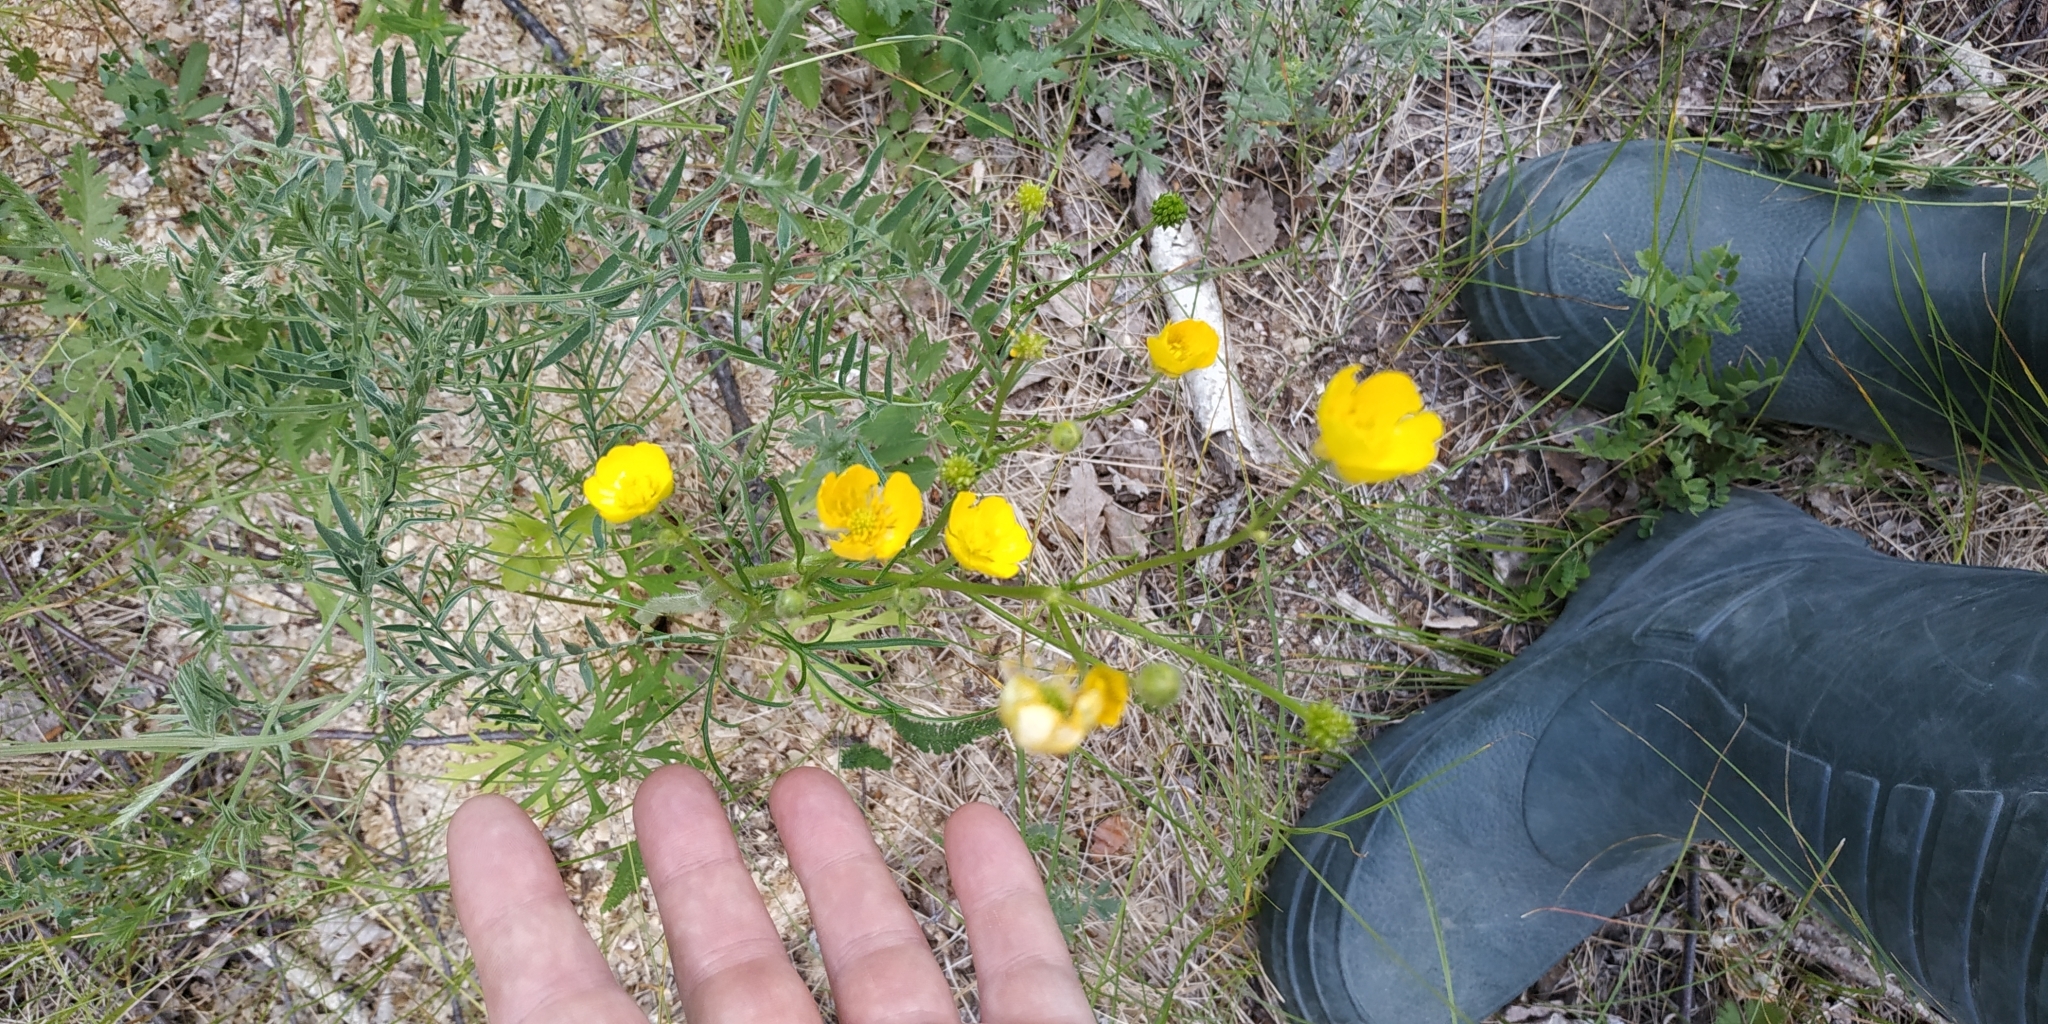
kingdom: Plantae
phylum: Tracheophyta
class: Magnoliopsida
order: Ranunculales
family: Ranunculaceae
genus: Ranunculus
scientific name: Ranunculus polyanthemos
